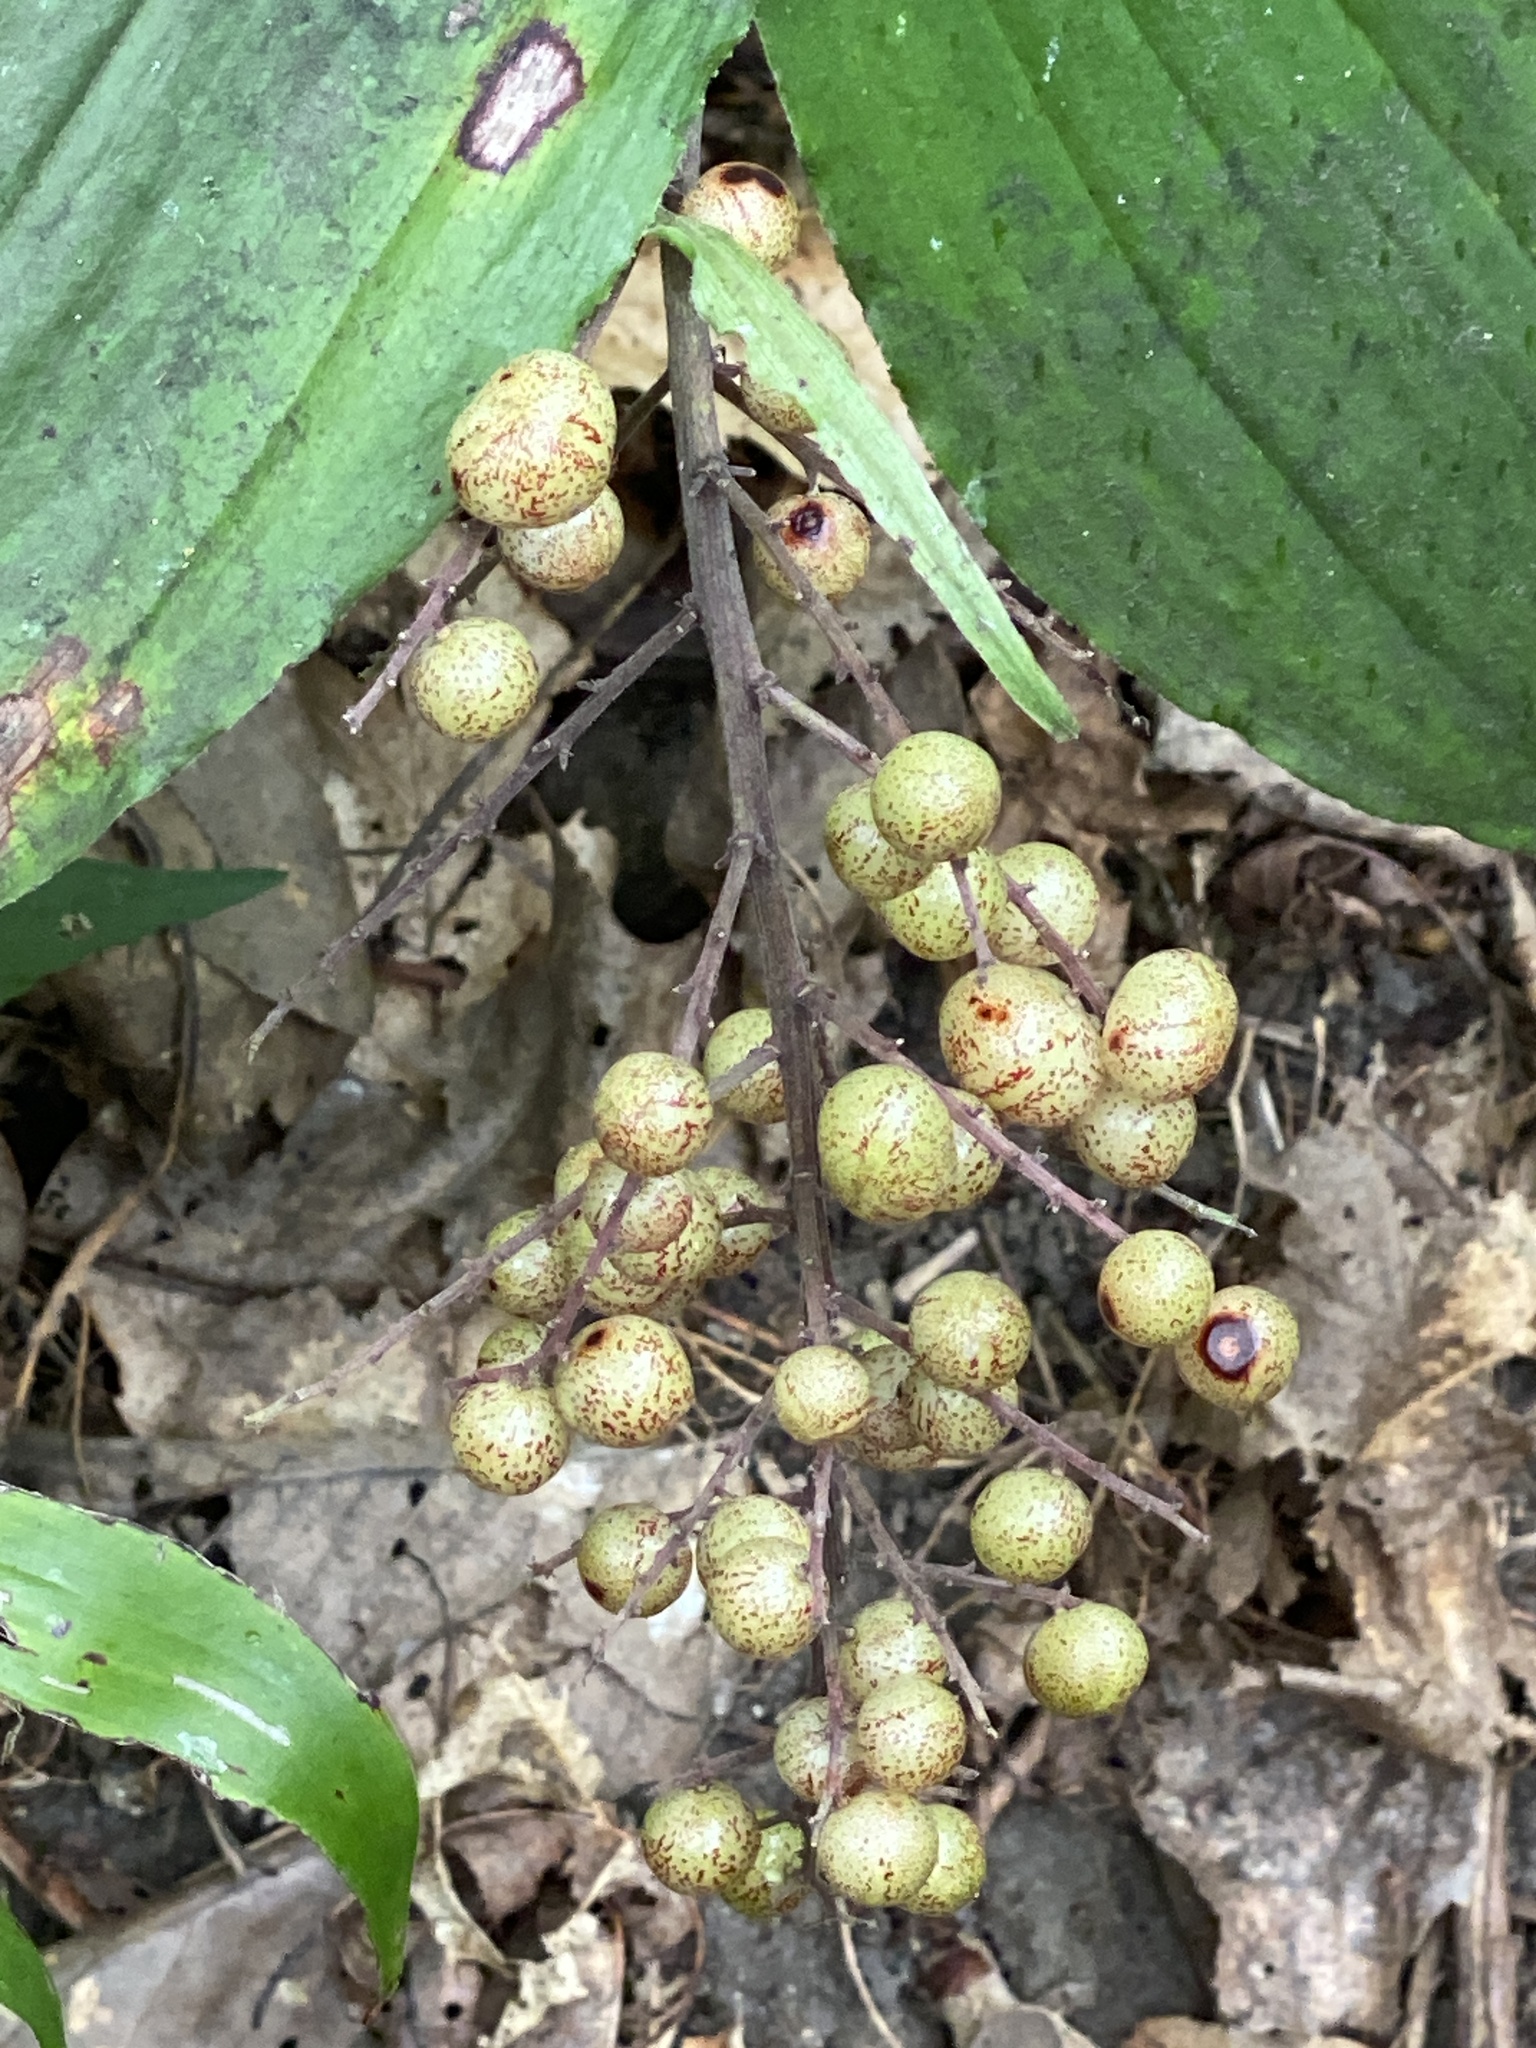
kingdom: Plantae
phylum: Tracheophyta
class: Liliopsida
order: Asparagales
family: Asparagaceae
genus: Maianthemum
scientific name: Maianthemum racemosum
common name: False spikenard
